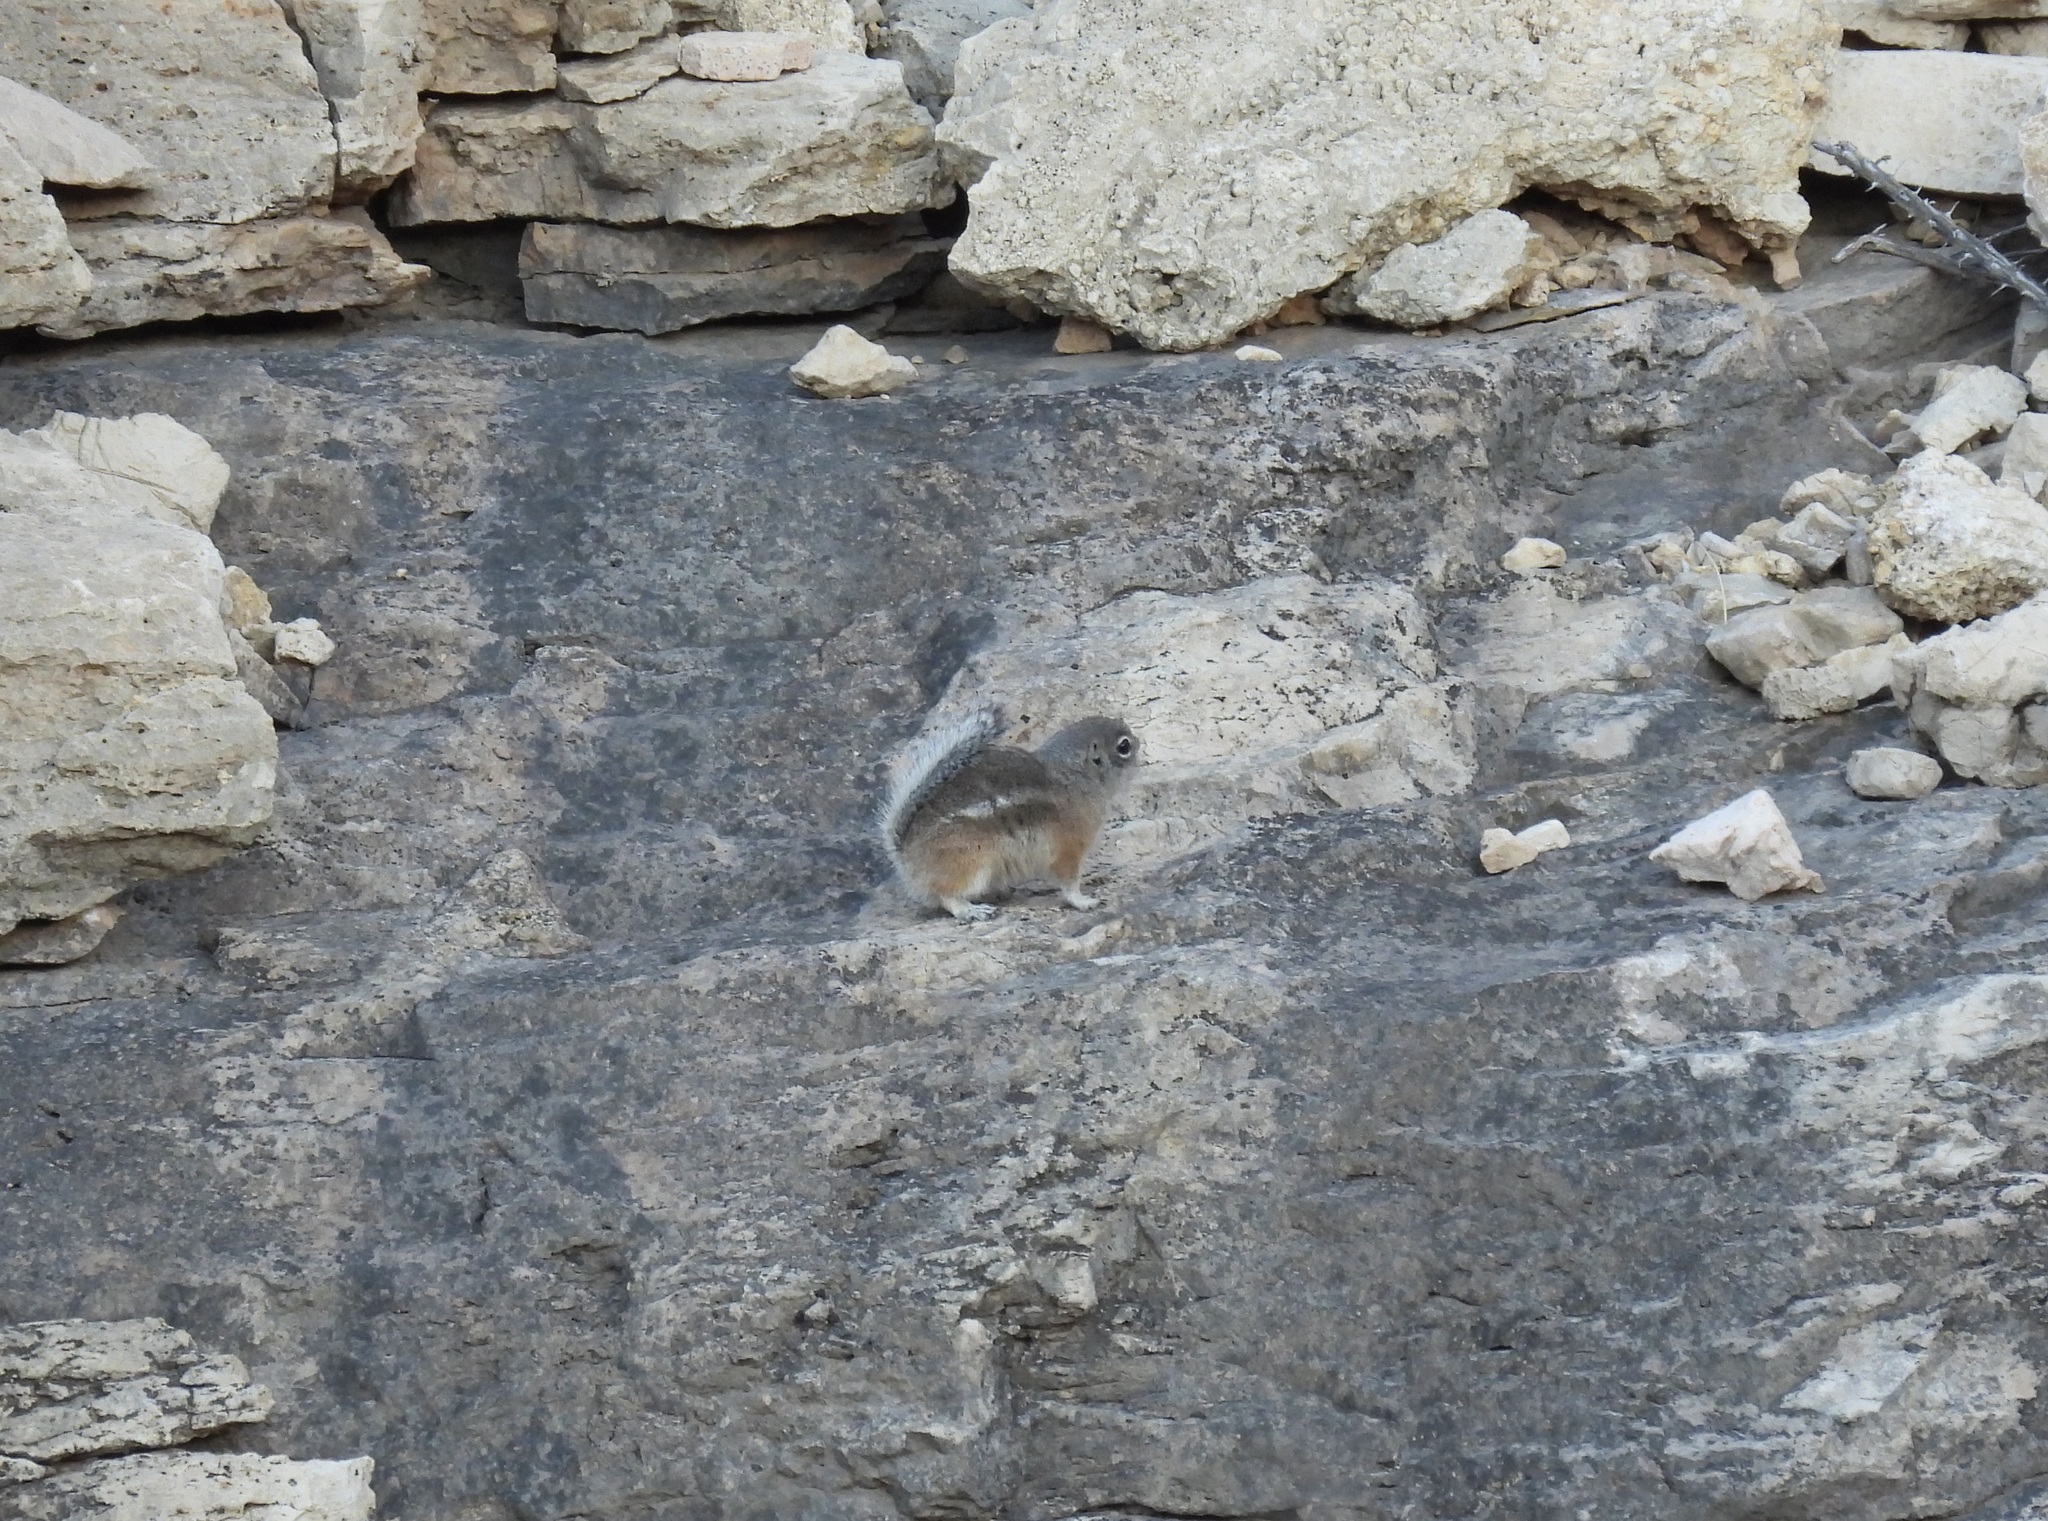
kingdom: Animalia
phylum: Chordata
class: Mammalia
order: Rodentia
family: Sciuridae
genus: Ammospermophilus
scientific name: Ammospermophilus interpres
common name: Texas antelope squirrel
